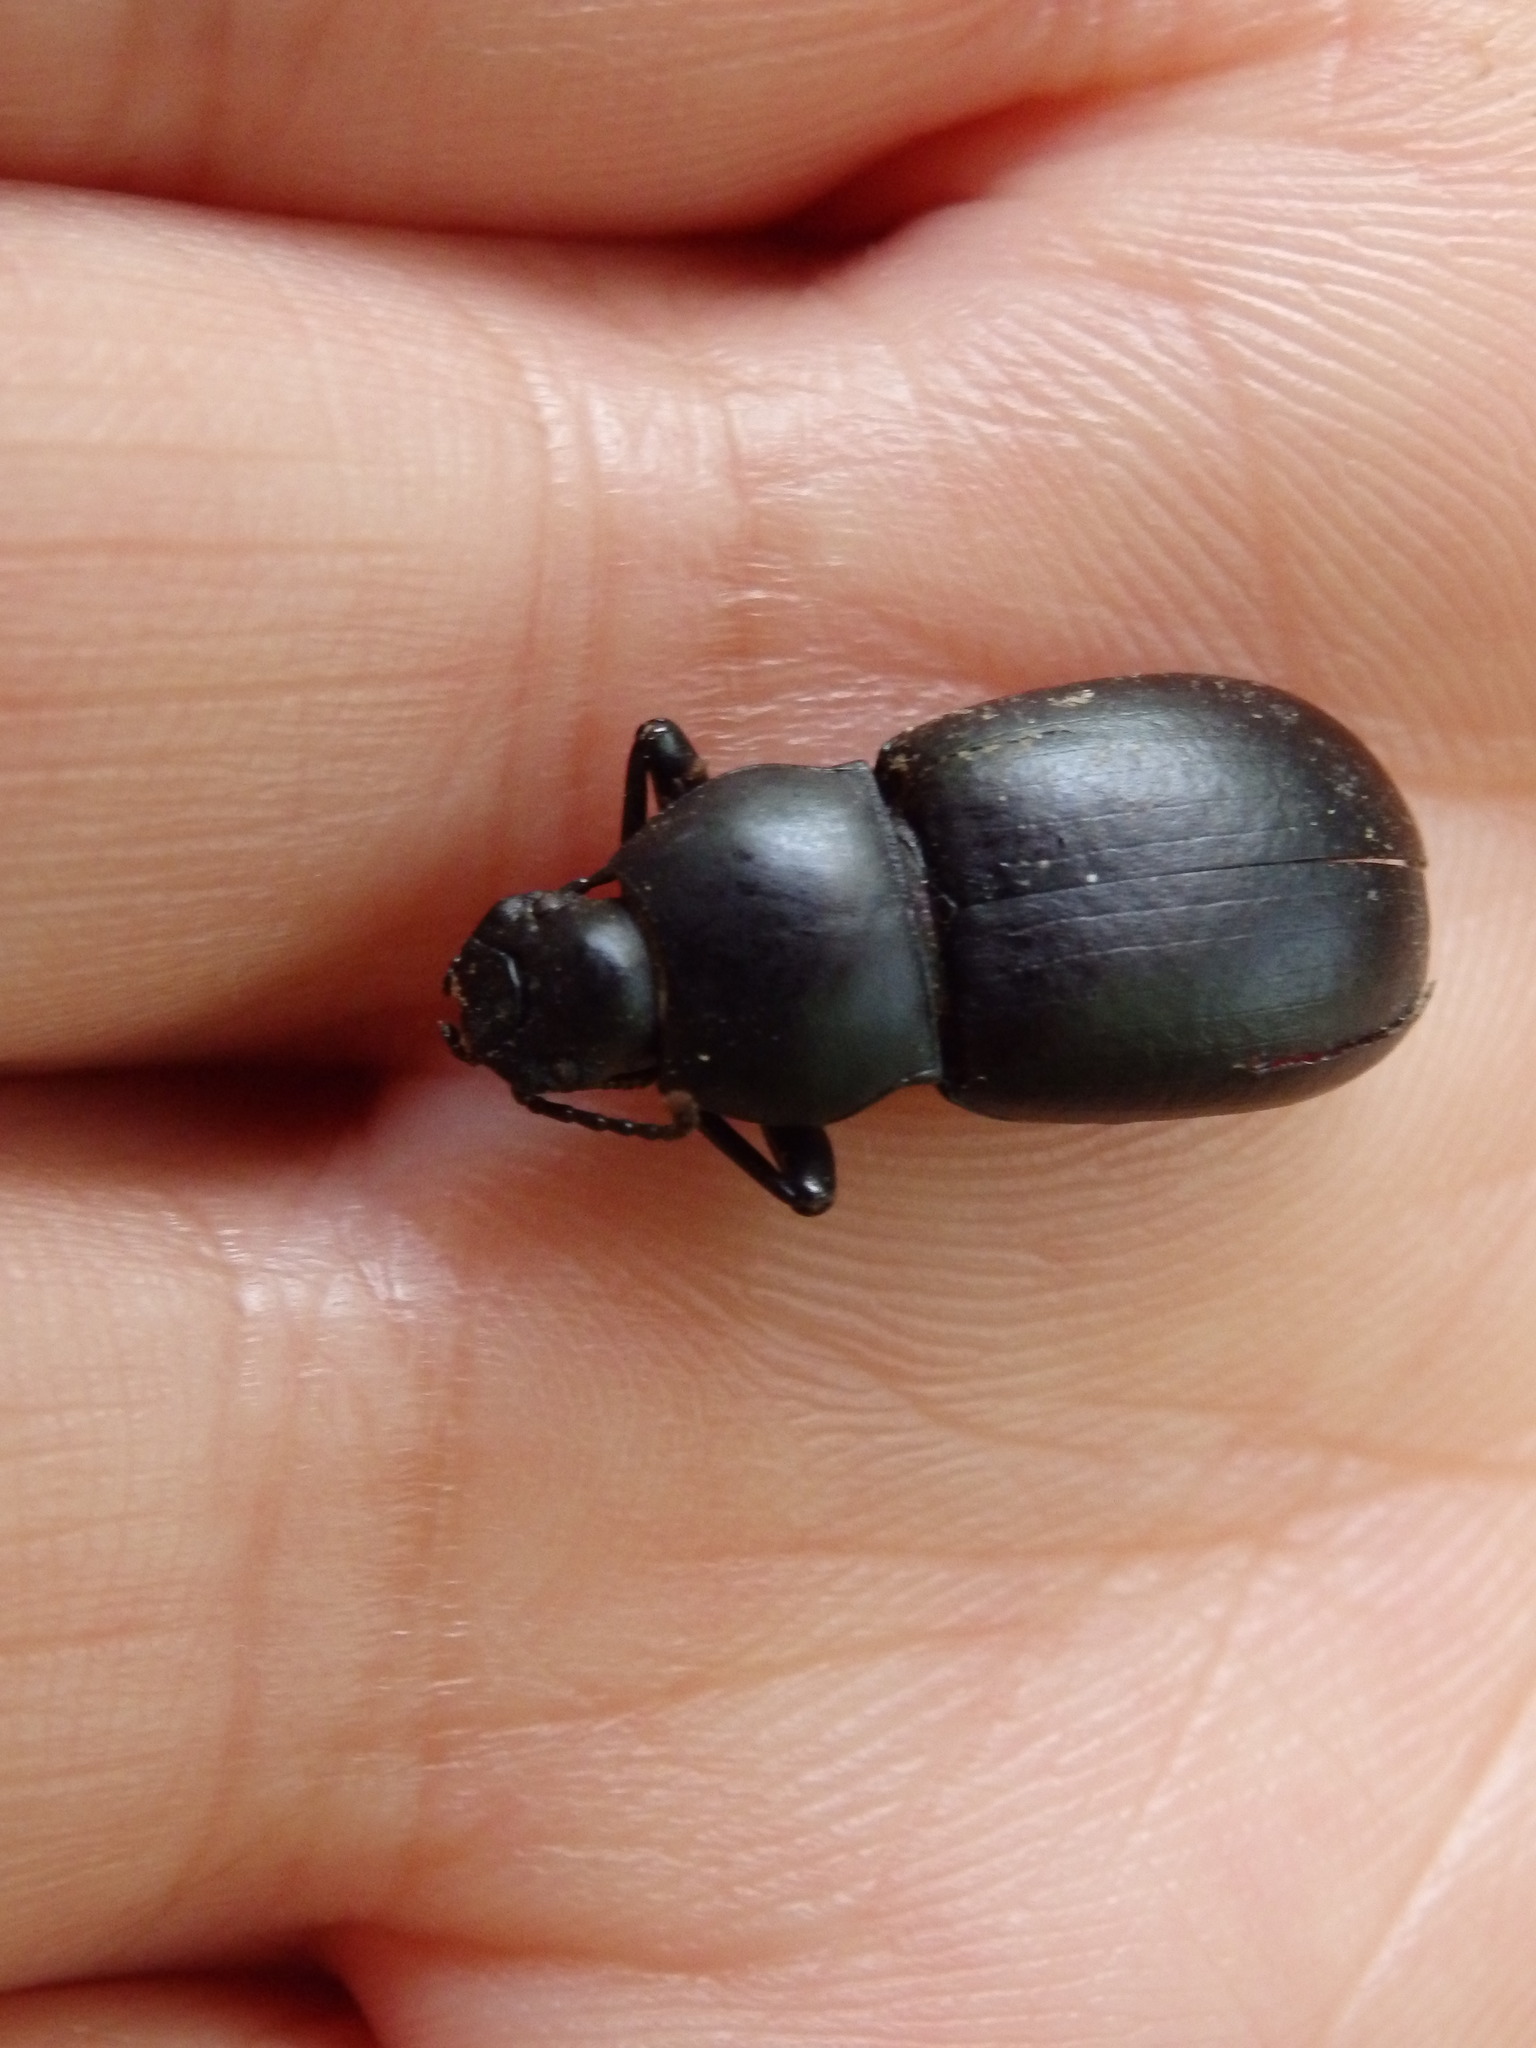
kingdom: Animalia
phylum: Arthropoda
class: Insecta
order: Coleoptera
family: Tenebrionidae
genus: Coelometopus
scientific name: Coelometopus clypeatus
